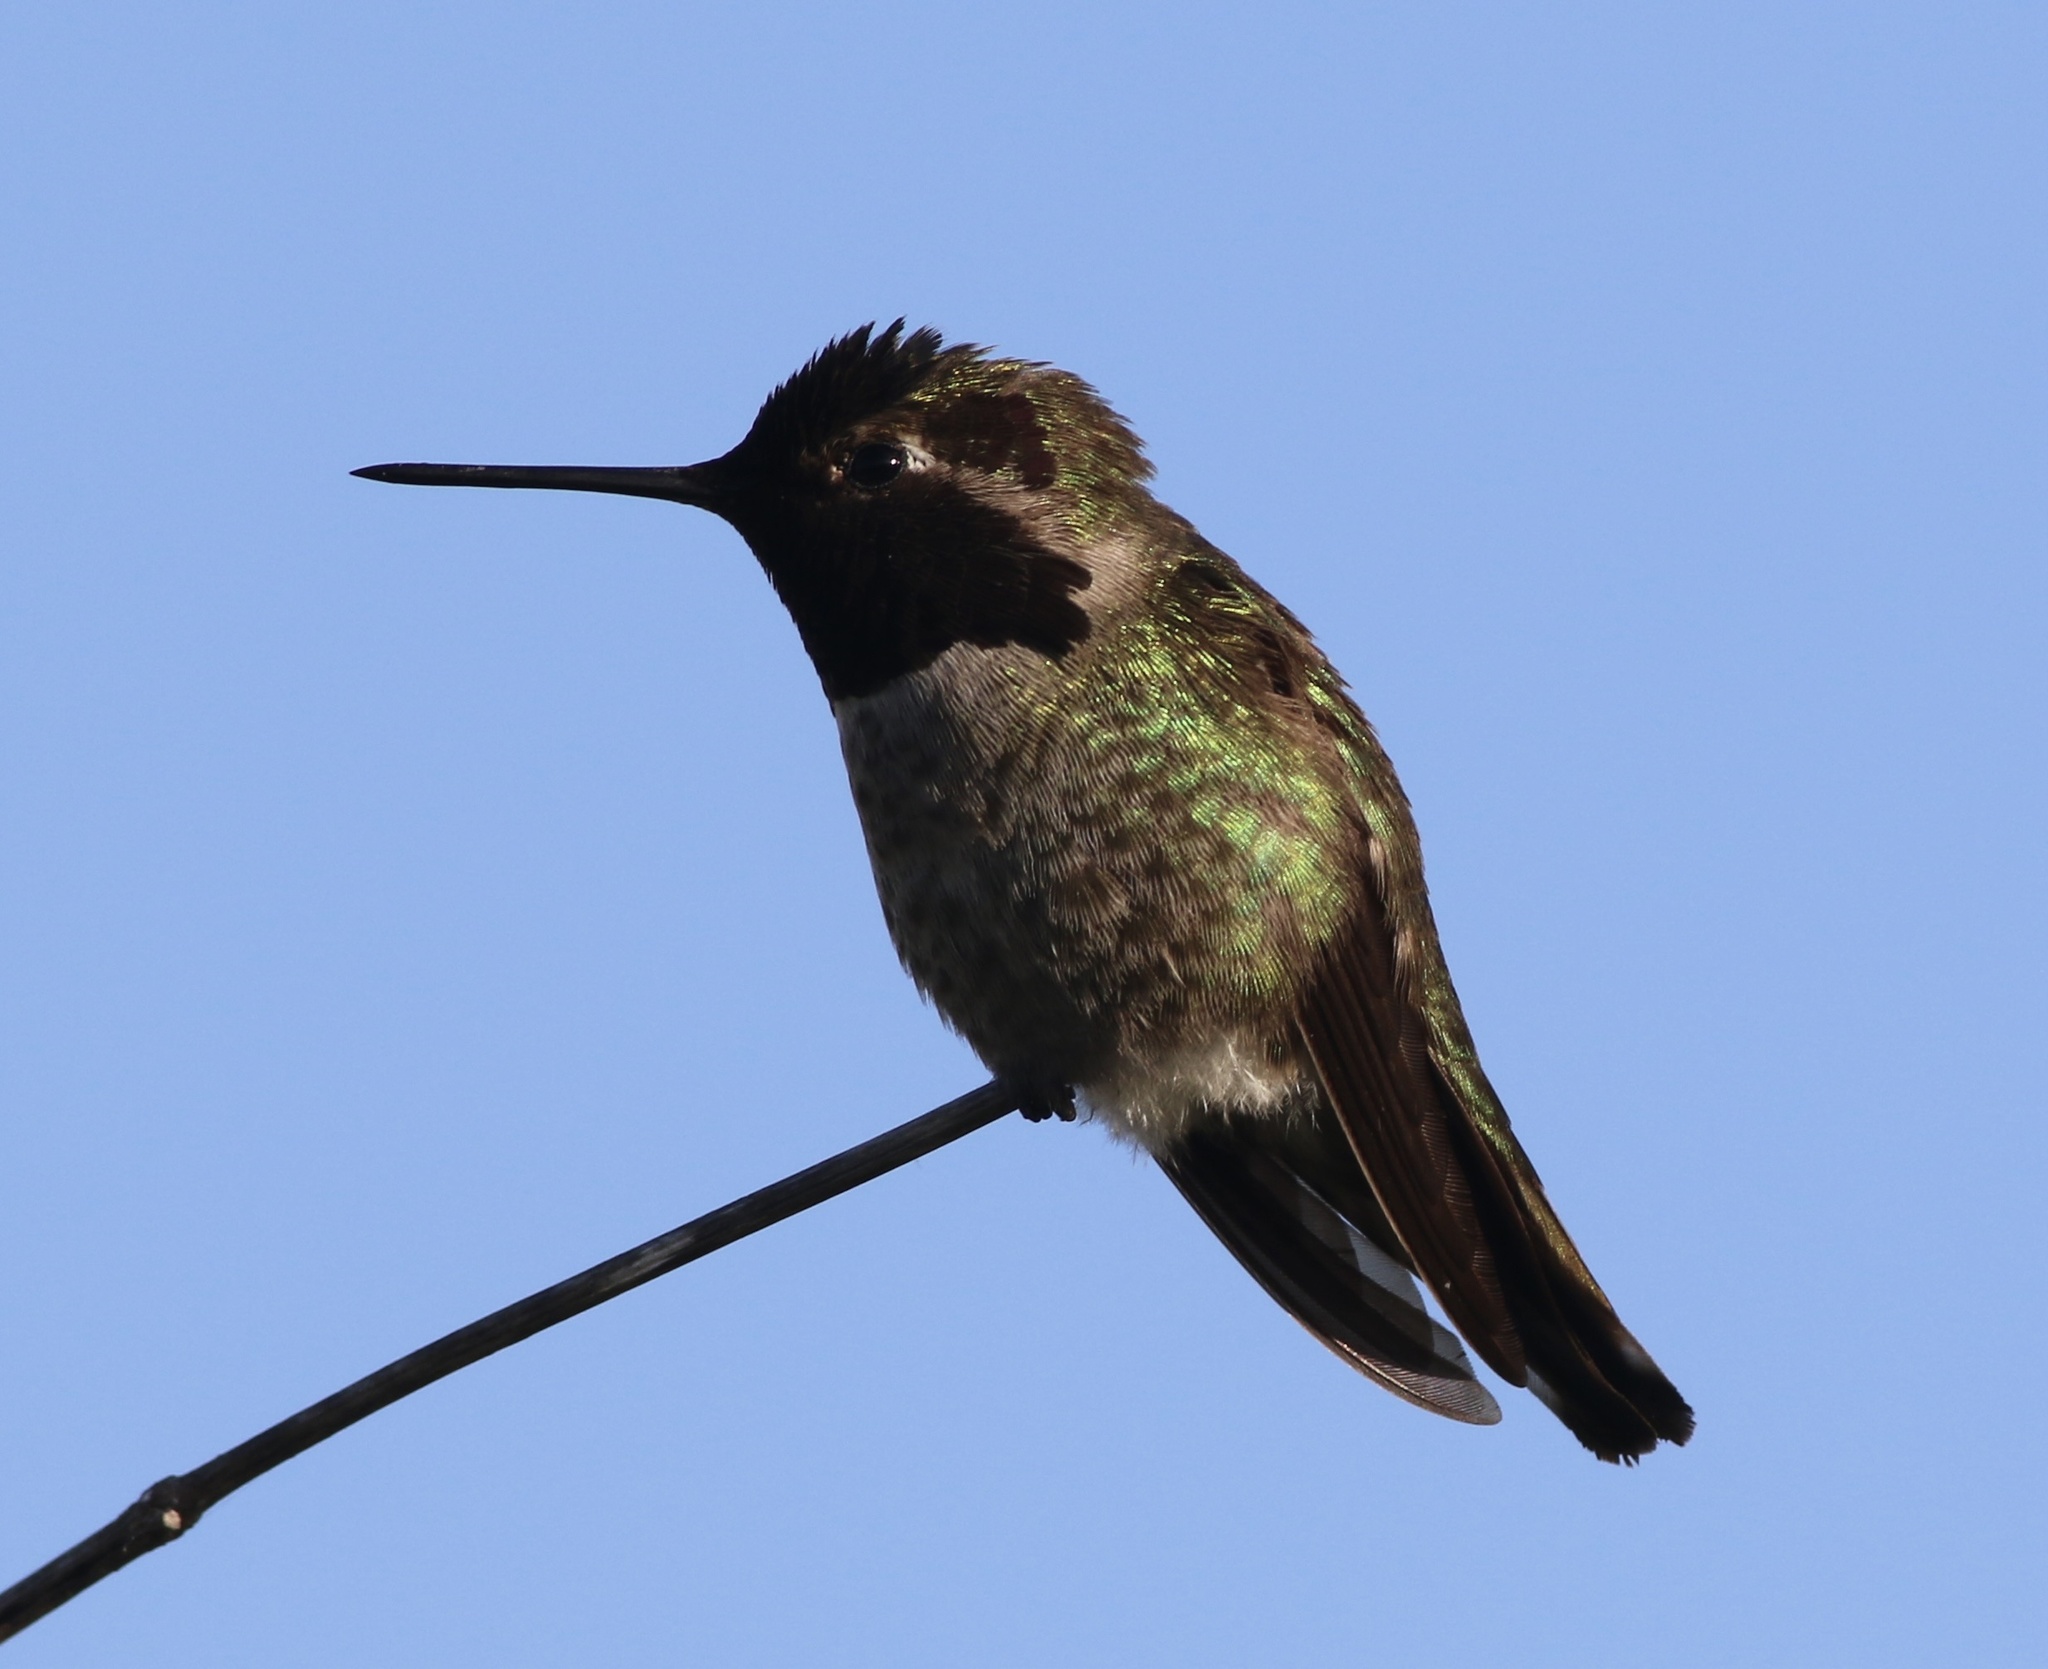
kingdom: Animalia
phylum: Chordata
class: Aves
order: Apodiformes
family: Trochilidae
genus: Calypte
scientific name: Calypte anna
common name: Anna's hummingbird
